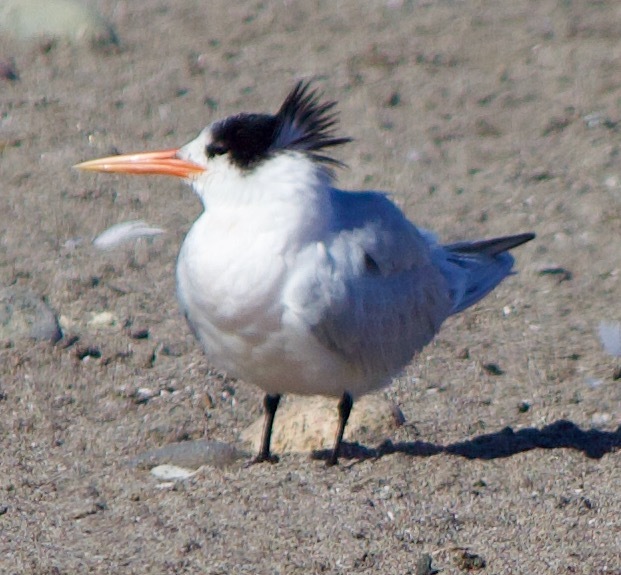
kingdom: Animalia
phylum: Chordata
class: Aves
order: Charadriiformes
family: Laridae
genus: Thalasseus
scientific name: Thalasseus elegans
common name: Elegant tern
